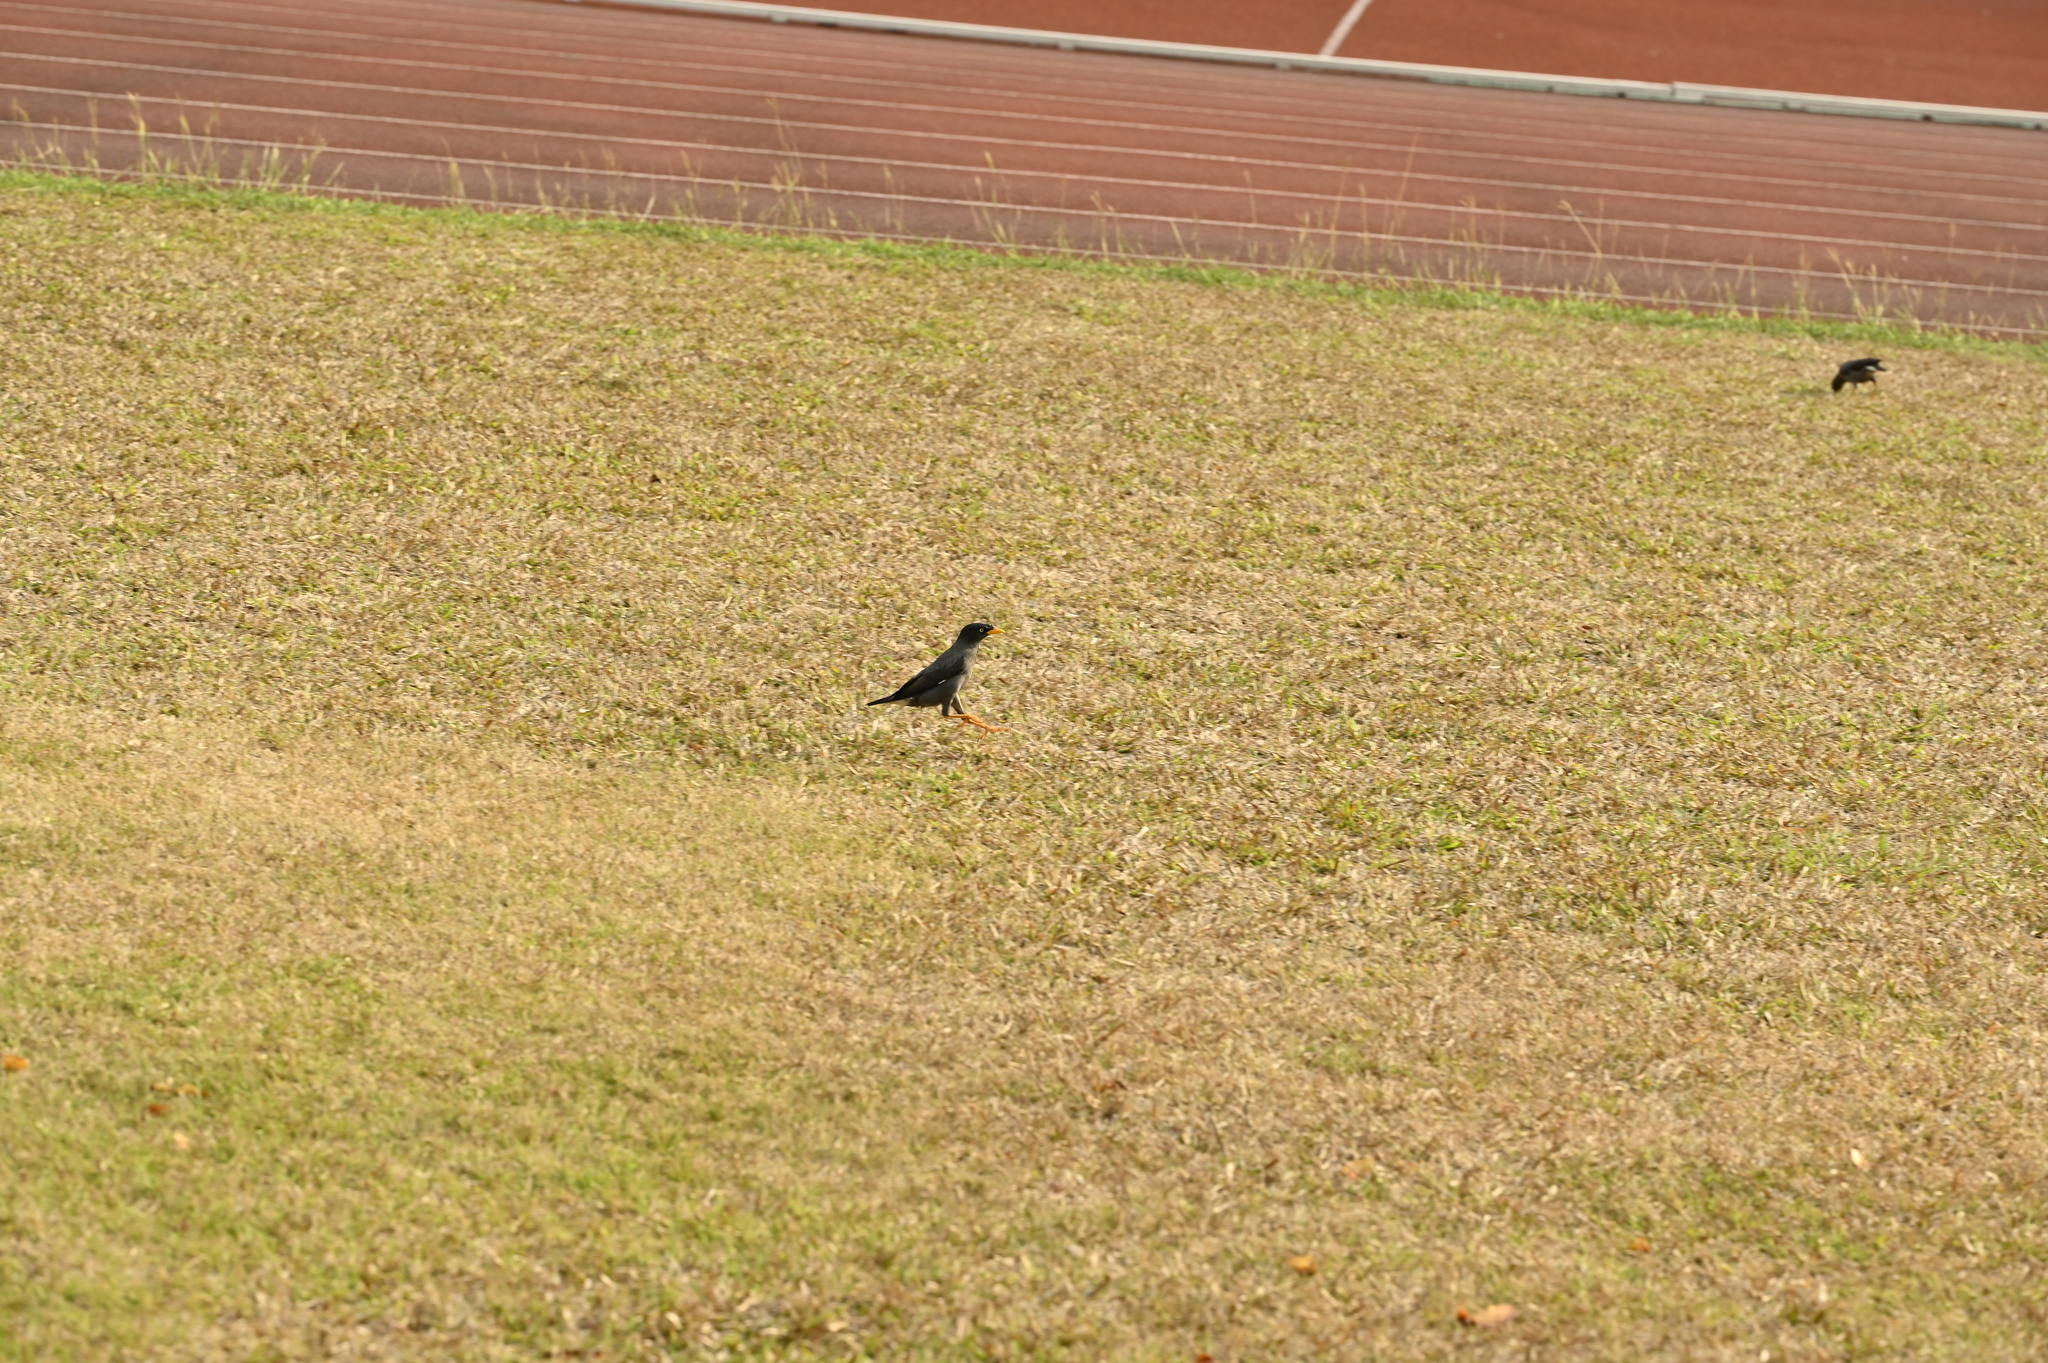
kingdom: Animalia
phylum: Chordata
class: Aves
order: Passeriformes
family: Sturnidae
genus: Acridotheres
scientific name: Acridotheres javanicus
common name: Javan myna
